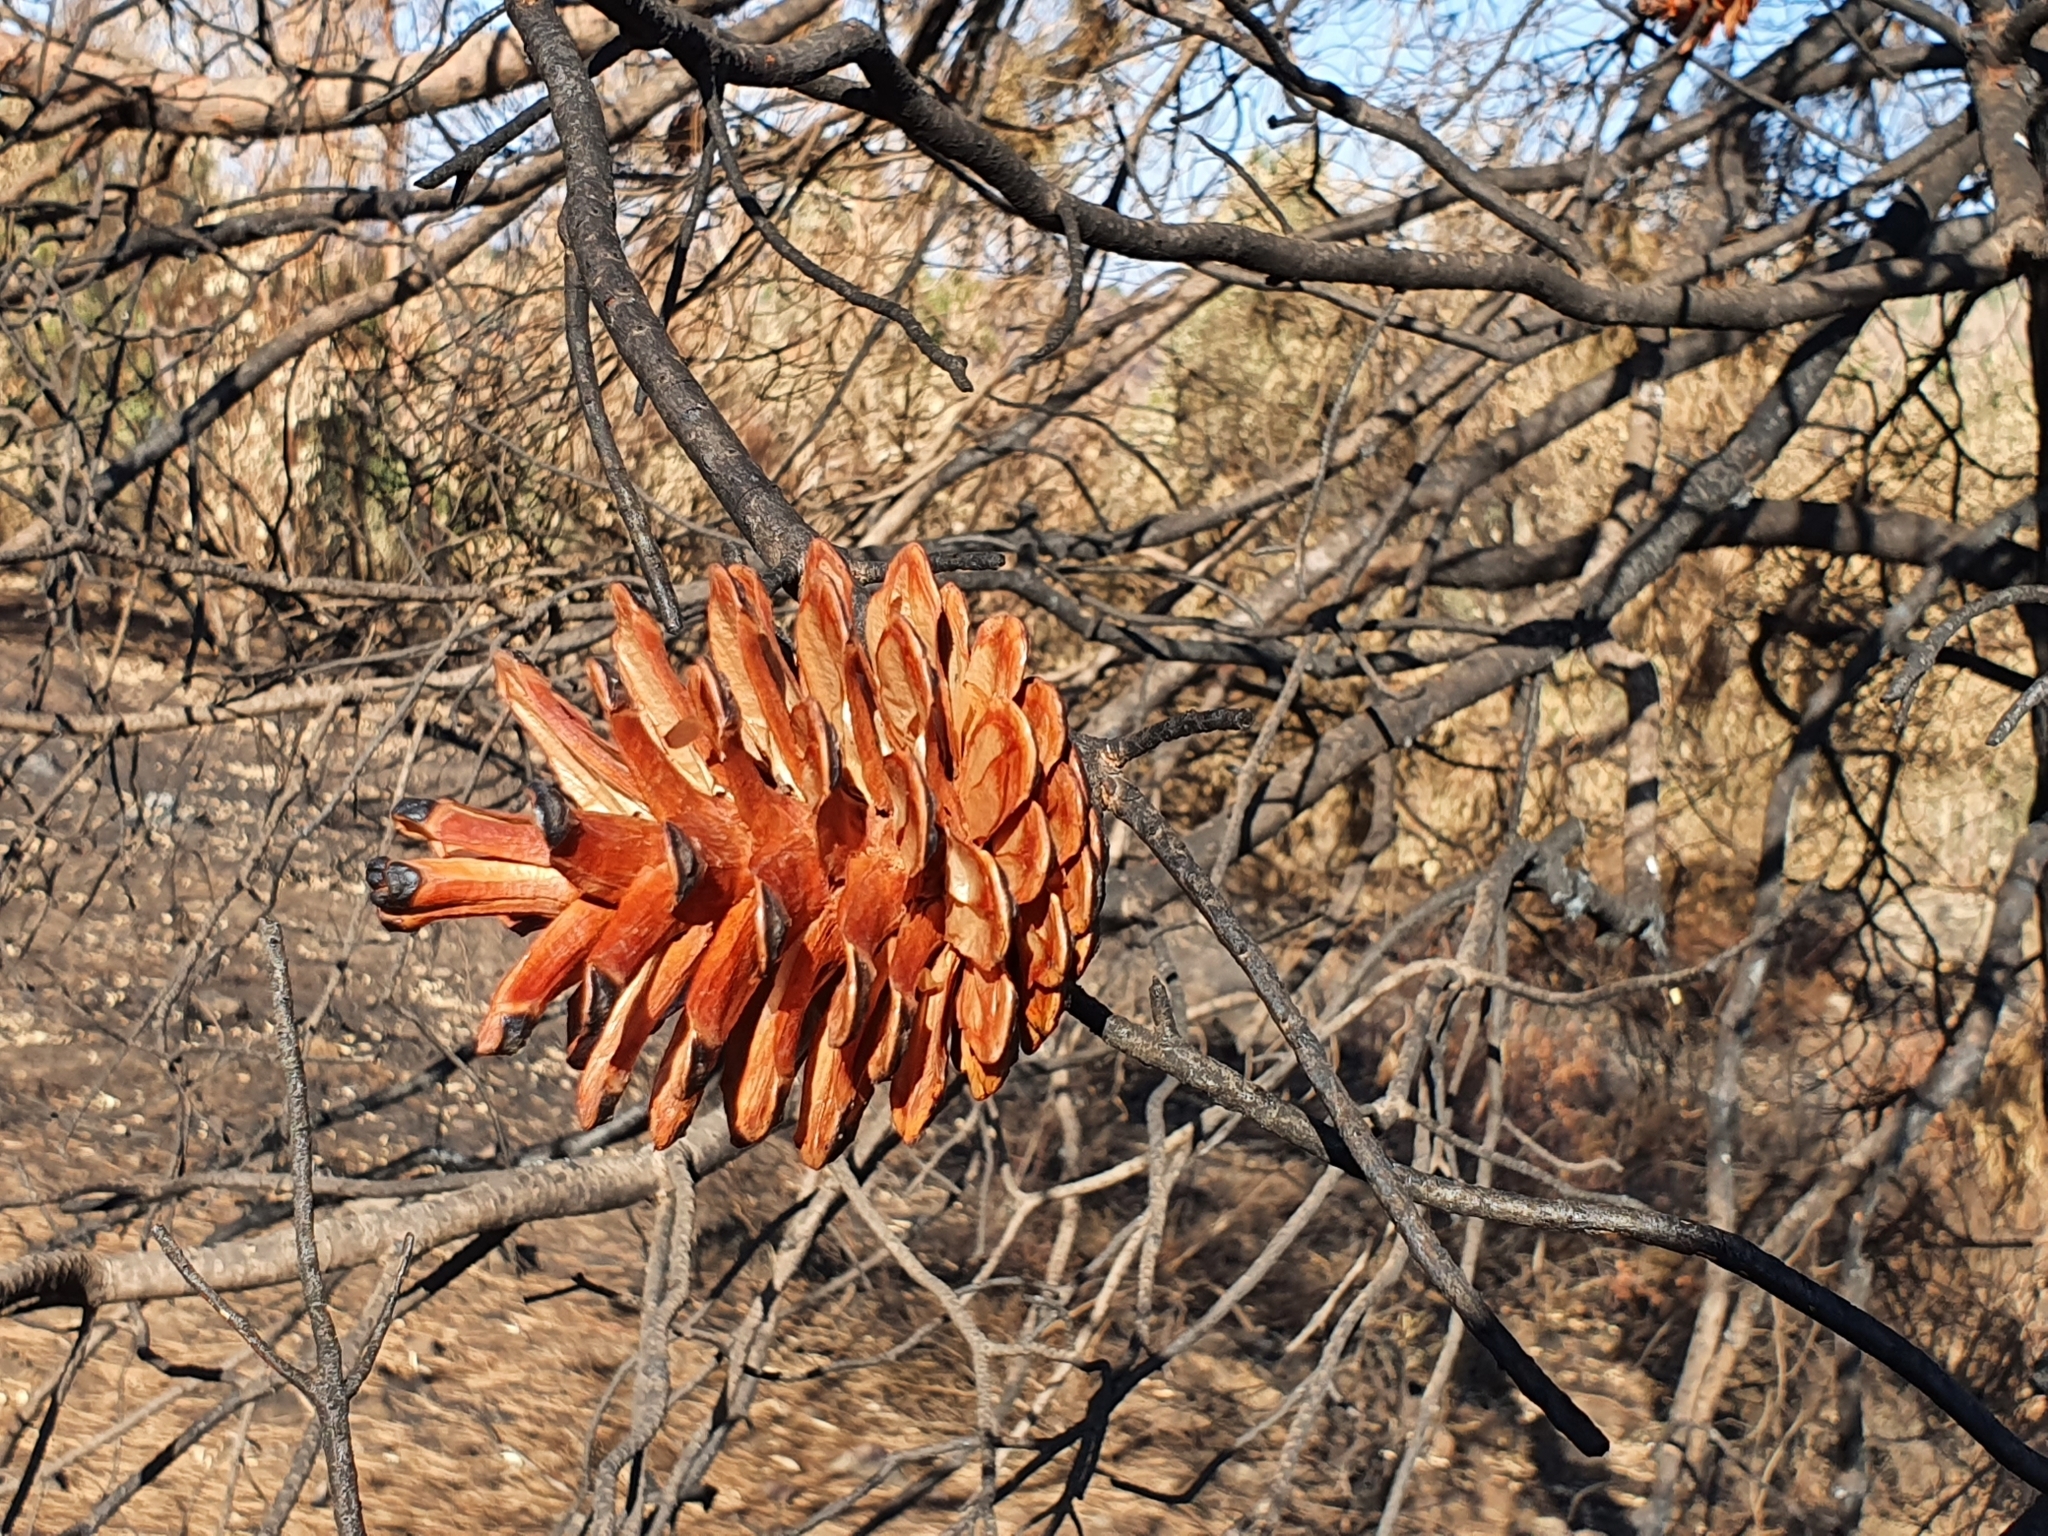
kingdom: Plantae
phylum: Tracheophyta
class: Pinopsida
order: Pinales
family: Pinaceae
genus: Pinus
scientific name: Pinus halepensis
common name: Aleppo pine
